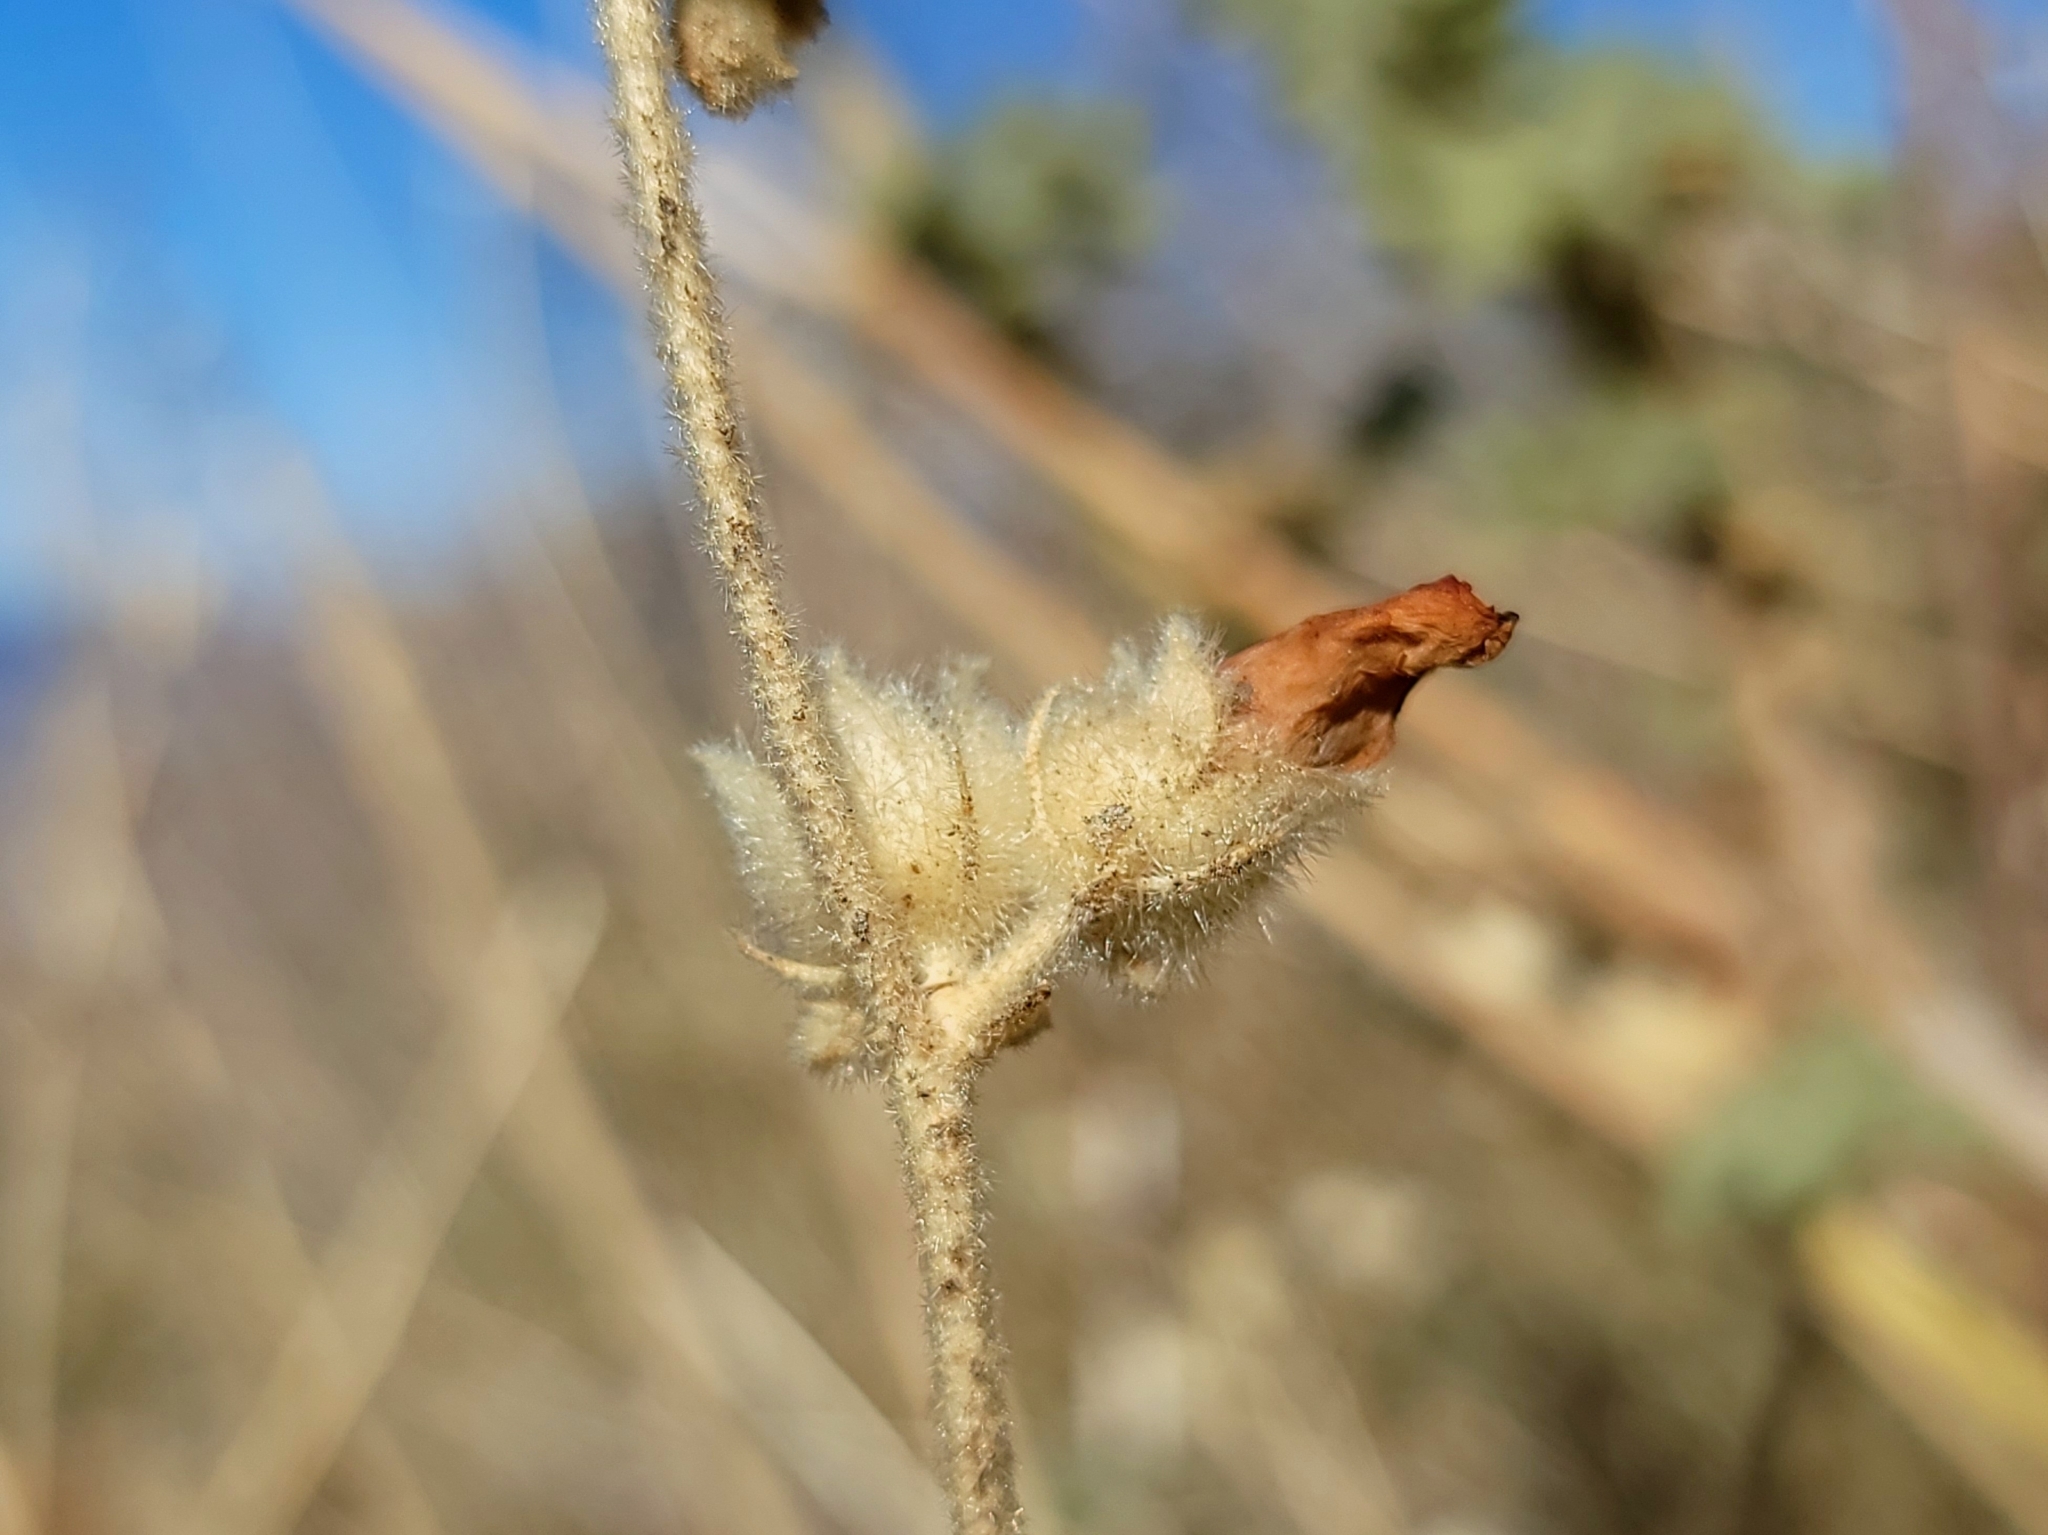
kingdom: Plantae
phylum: Tracheophyta
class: Magnoliopsida
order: Malvales
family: Malvaceae
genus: Malacothamnus
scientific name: Malacothamnus fremontii
